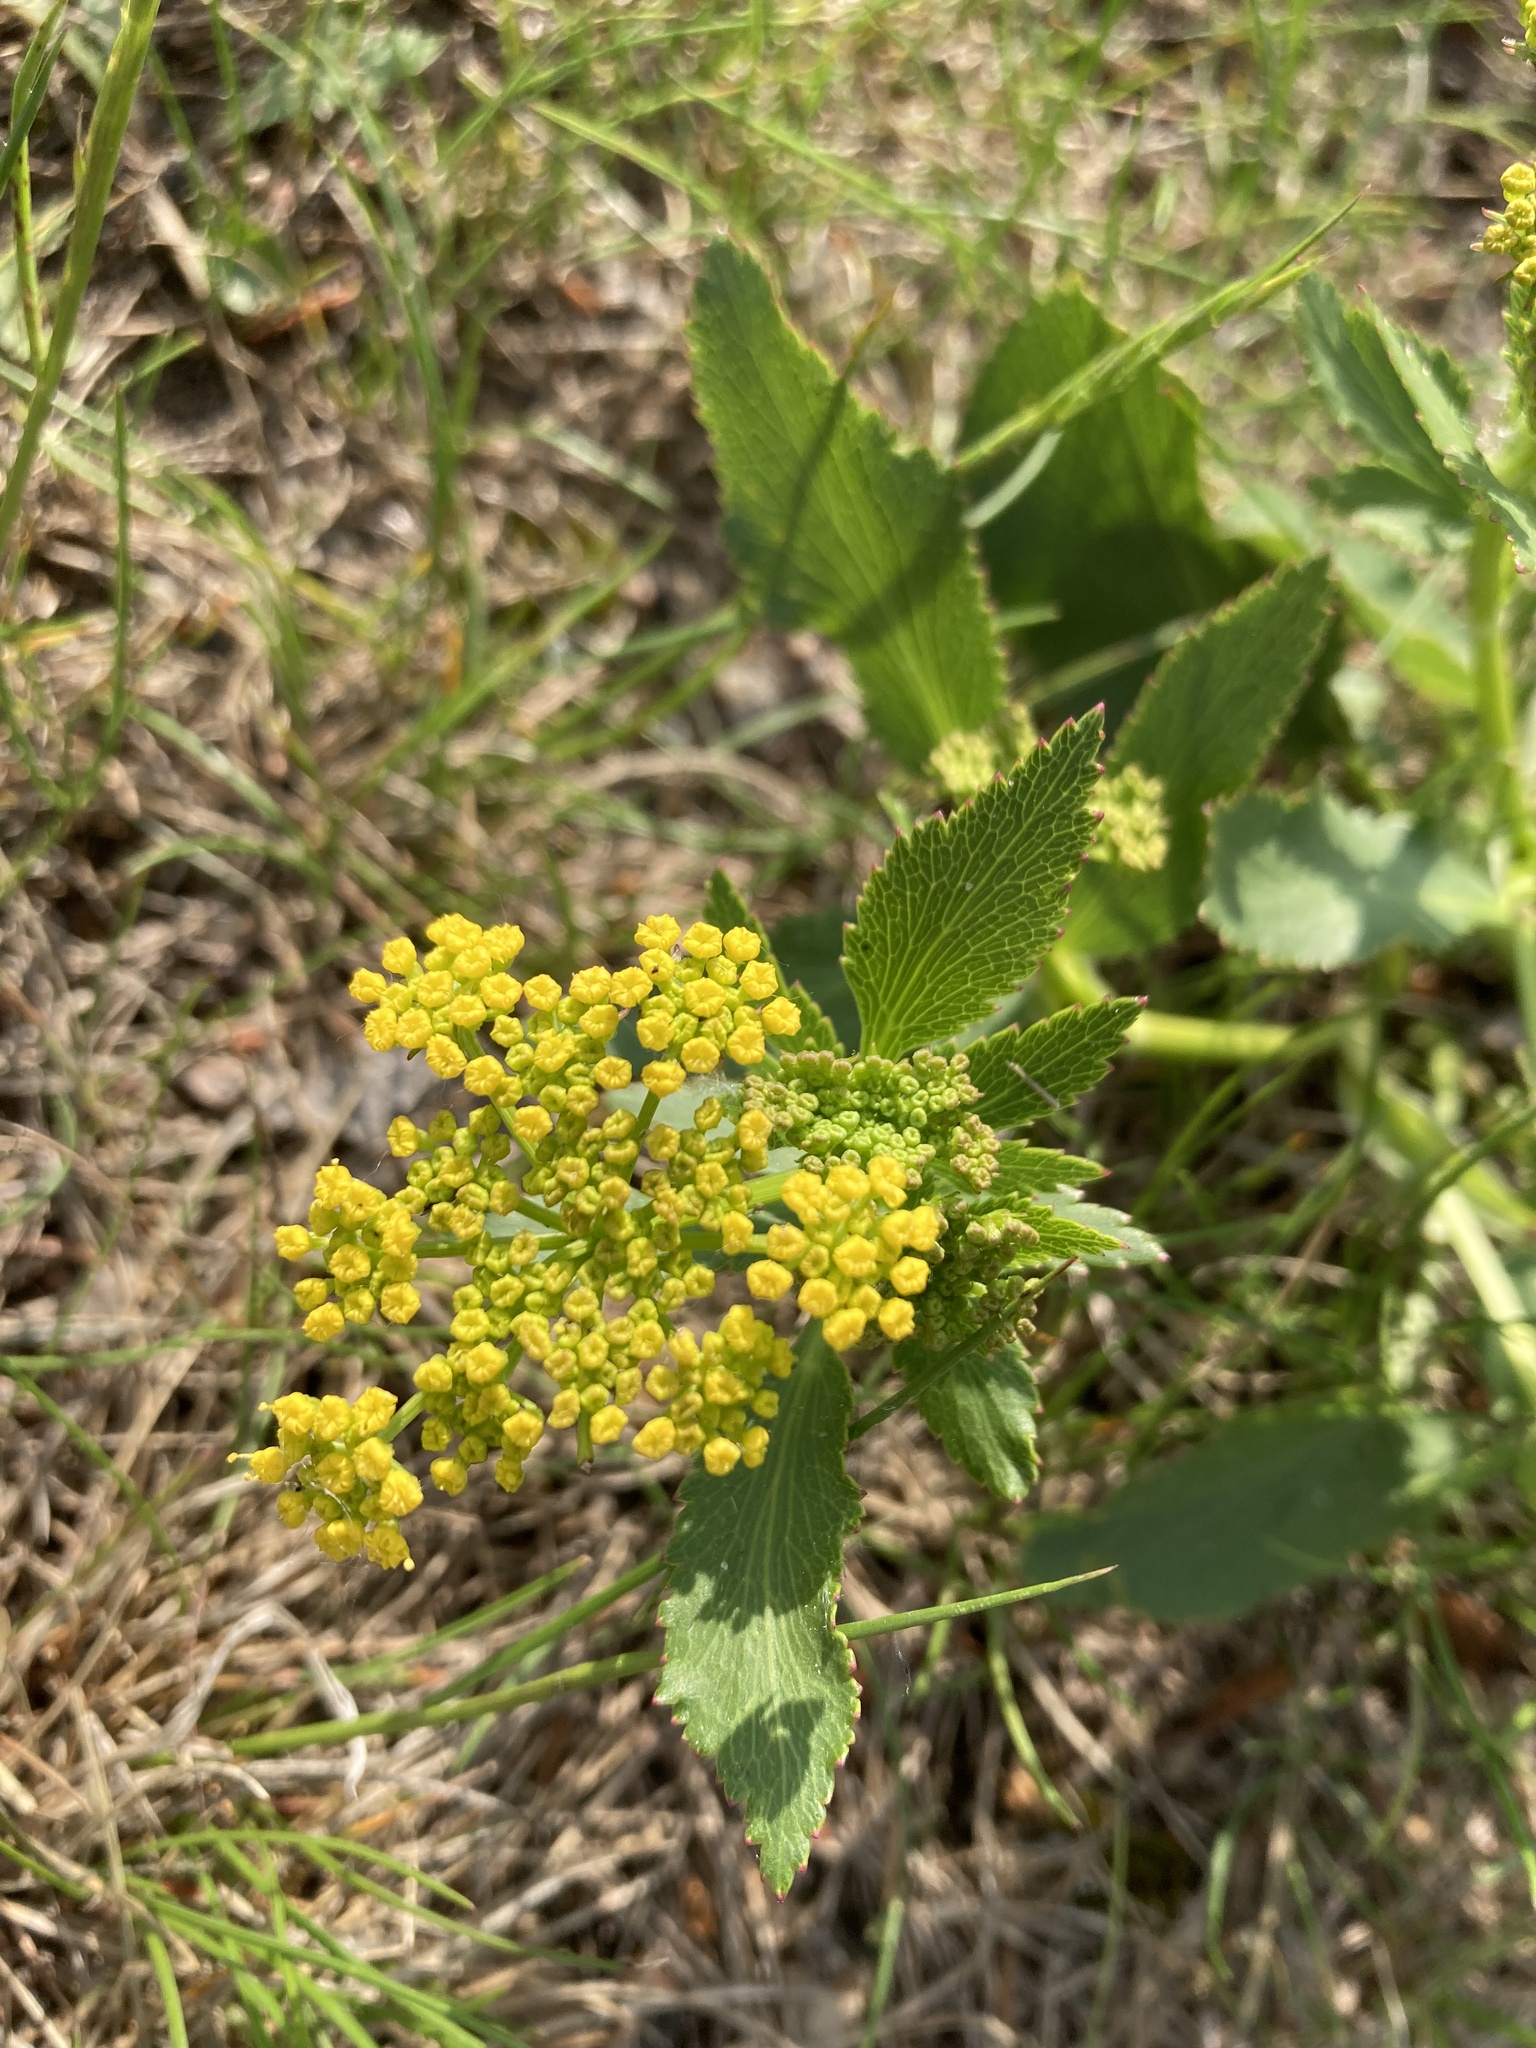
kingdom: Plantae
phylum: Tracheophyta
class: Magnoliopsida
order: Apiales
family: Apiaceae
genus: Zizia
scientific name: Zizia aptera
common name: Heart-leaved alexanders
